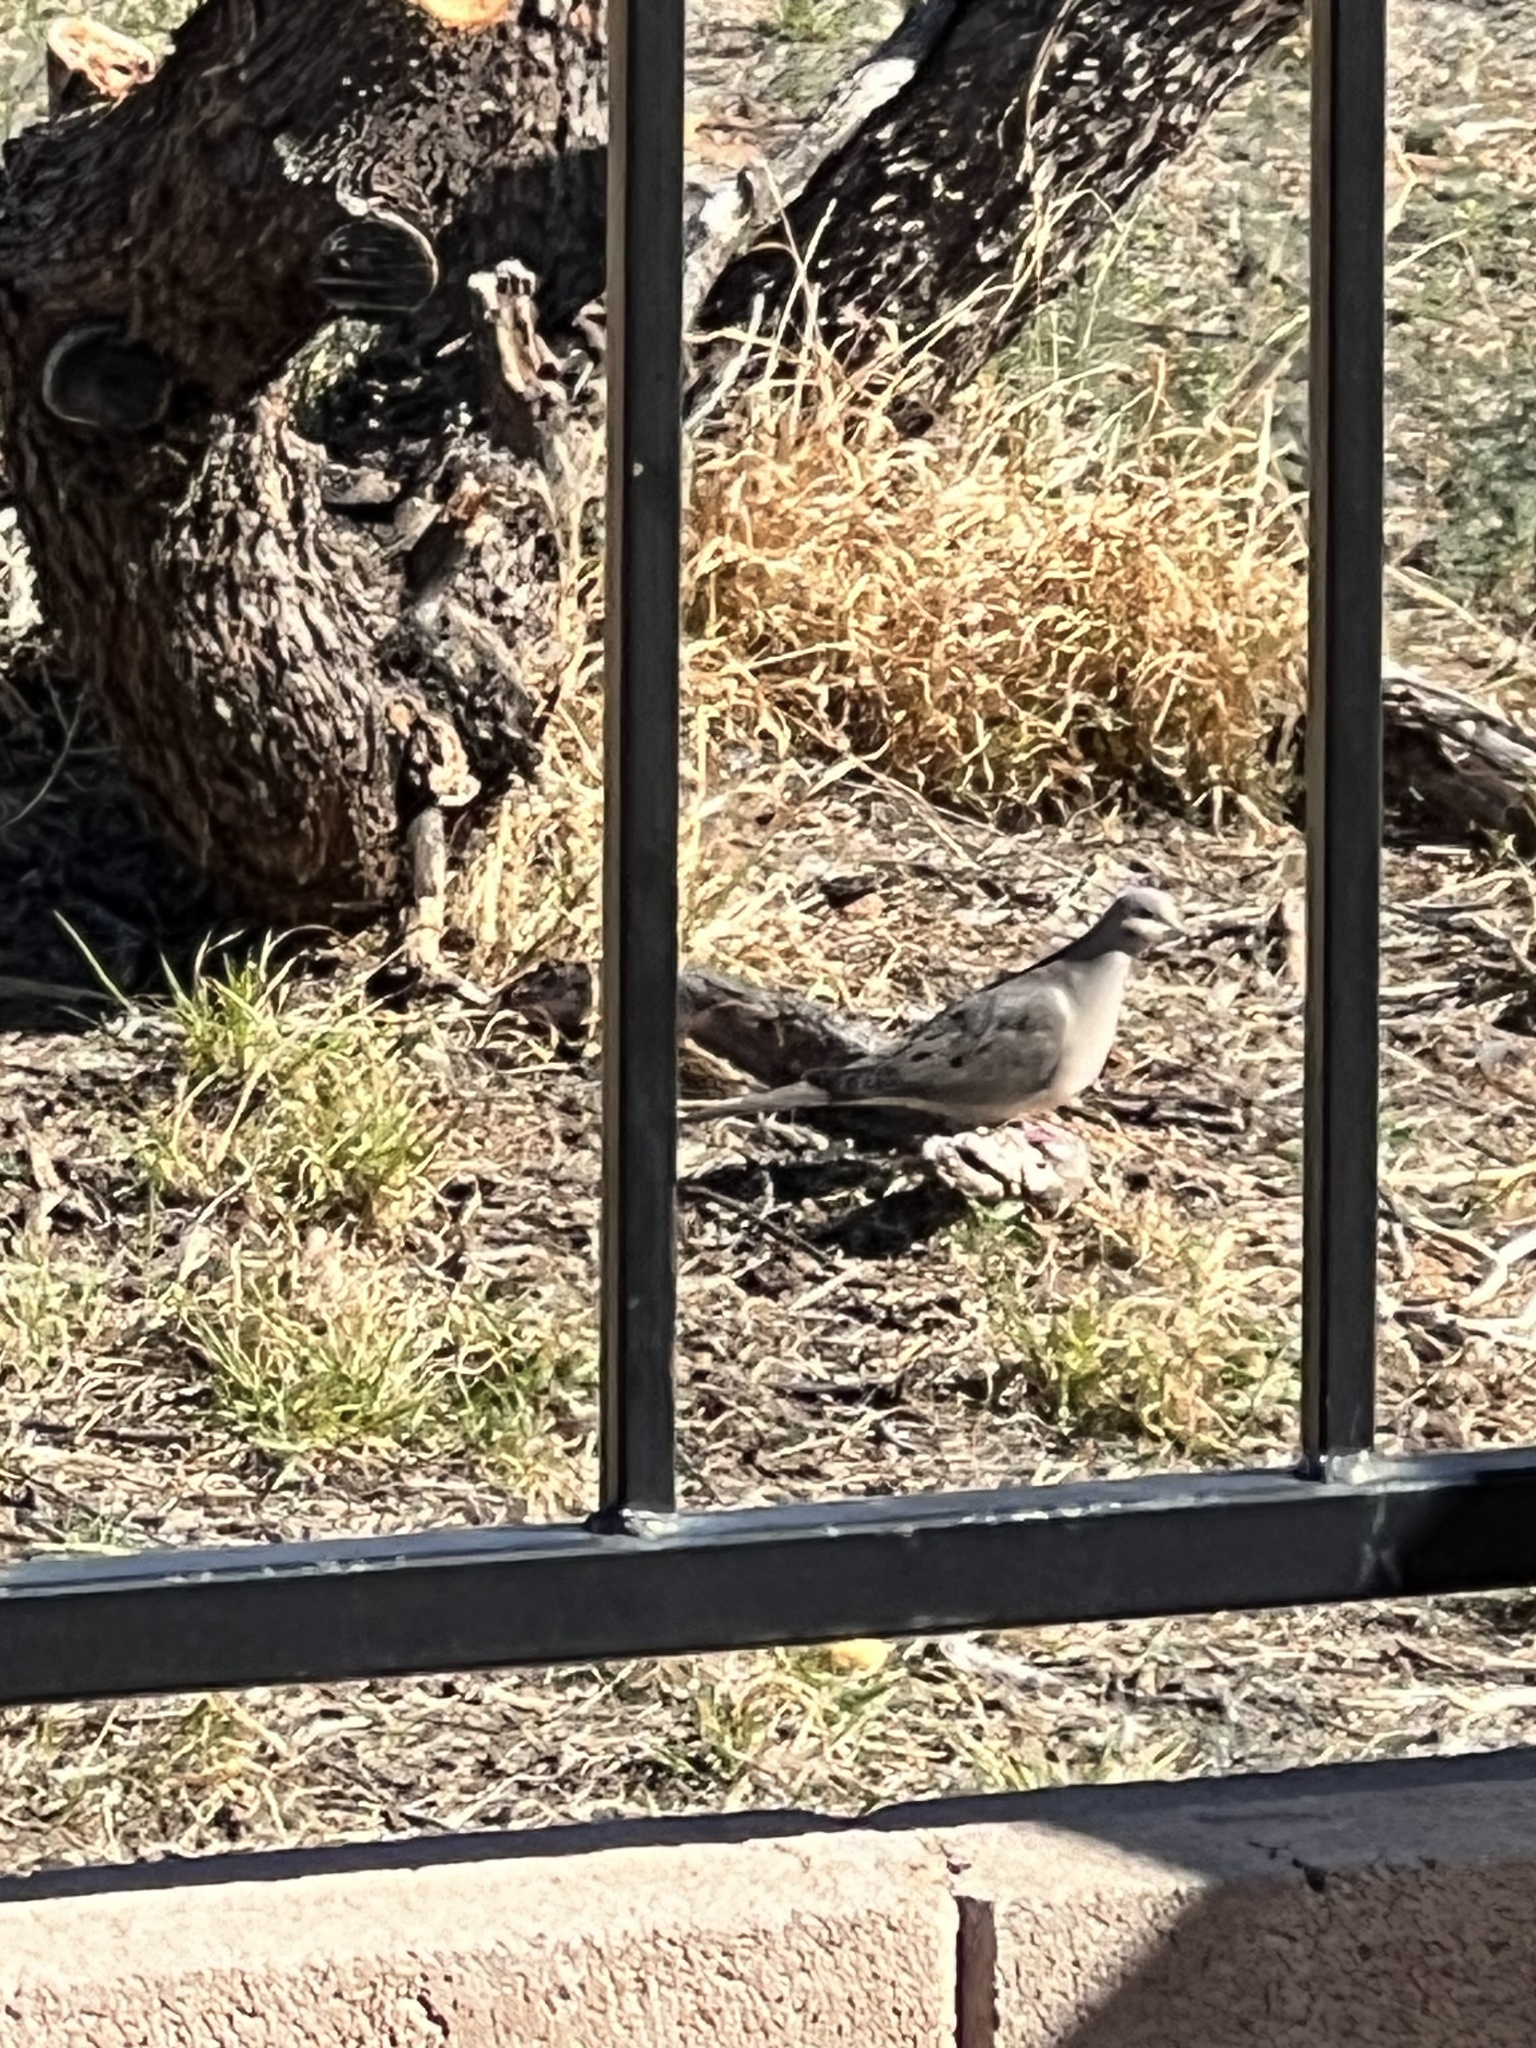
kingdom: Animalia
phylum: Chordata
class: Aves
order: Columbiformes
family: Columbidae
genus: Zenaida
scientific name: Zenaida macroura
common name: Mourning dove
